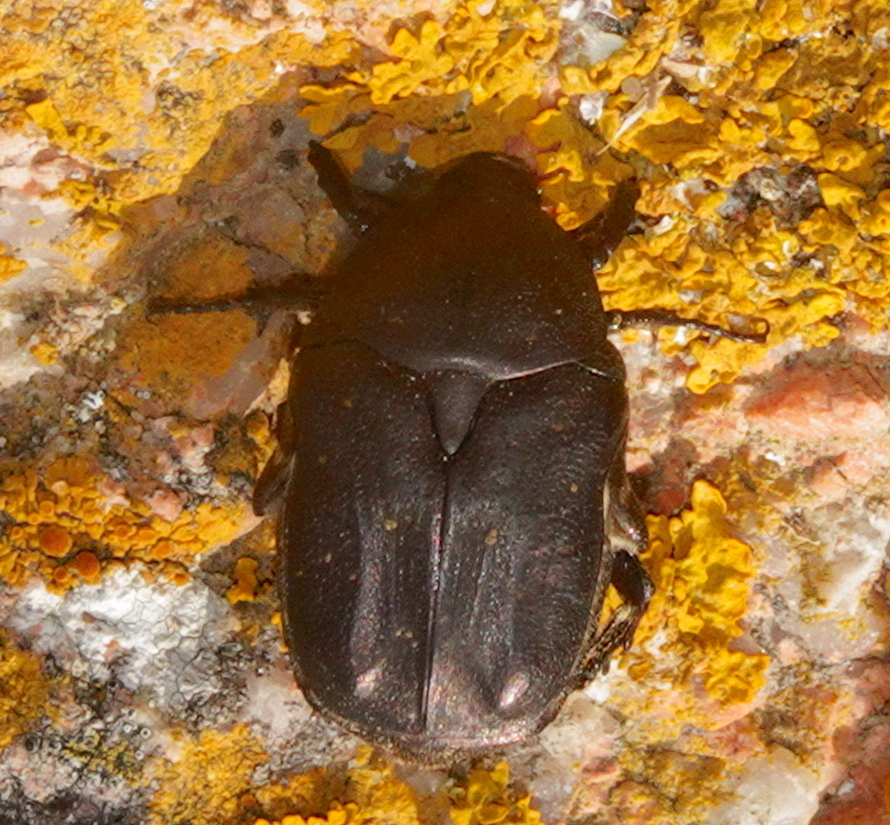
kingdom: Animalia
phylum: Arthropoda
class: Insecta
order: Coleoptera
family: Scarabaeidae
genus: Protaetia
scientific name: Protaetia morio
